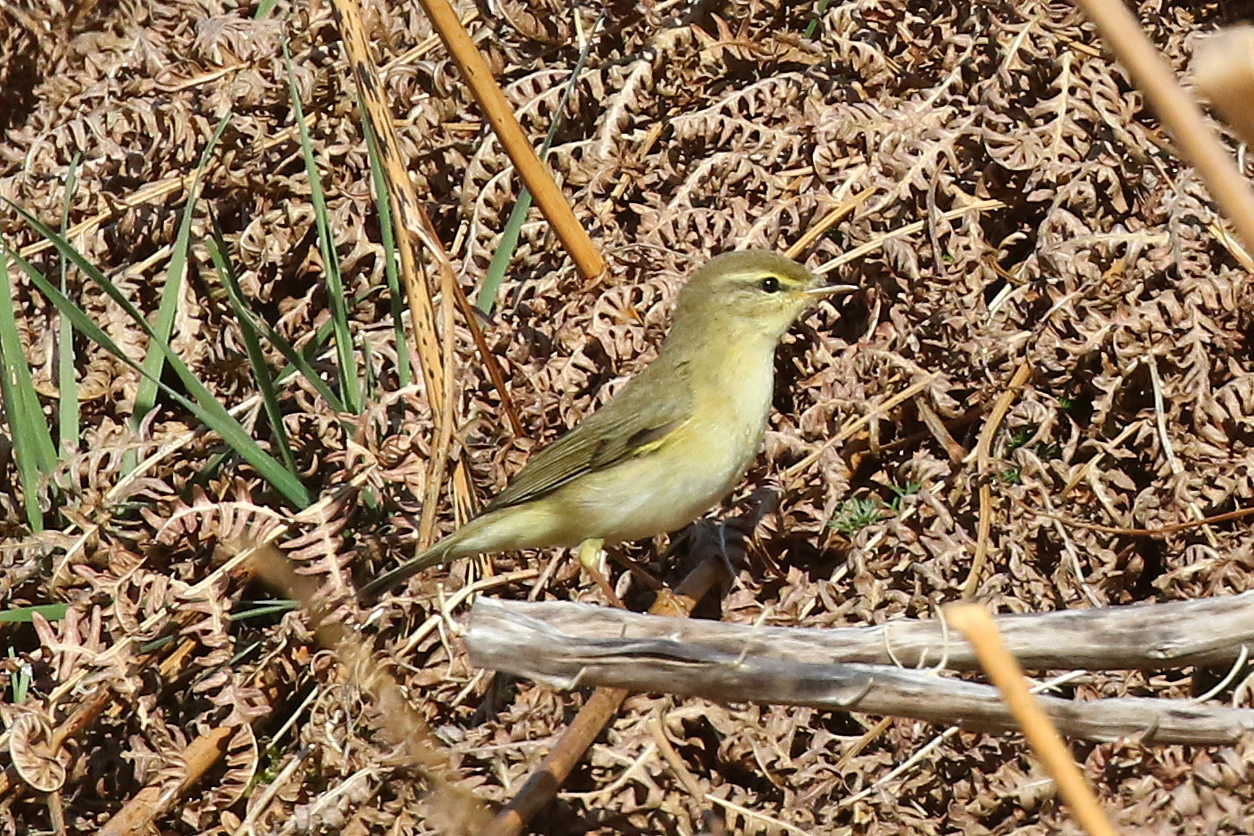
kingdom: Animalia
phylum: Chordata
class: Aves
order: Passeriformes
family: Phylloscopidae
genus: Phylloscopus
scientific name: Phylloscopus trochilus
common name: Willow warbler
